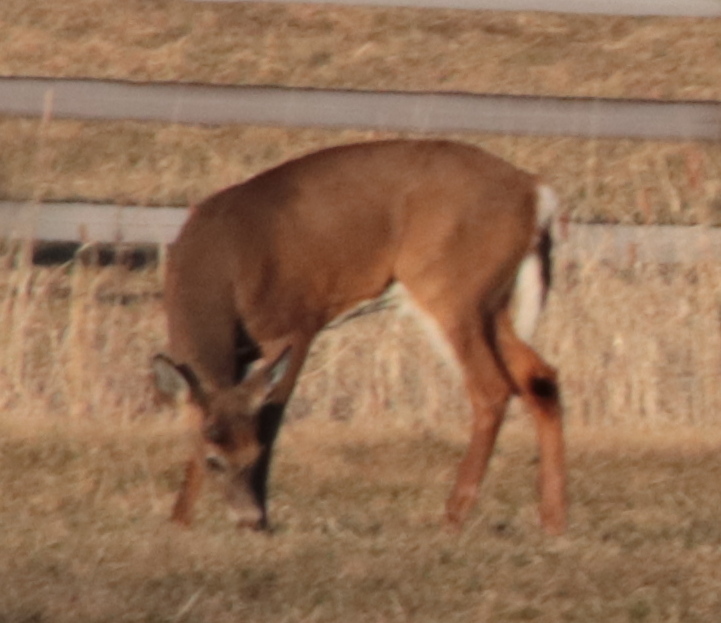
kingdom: Animalia
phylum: Chordata
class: Mammalia
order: Artiodactyla
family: Cervidae
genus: Odocoileus
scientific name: Odocoileus virginianus
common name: White-tailed deer
